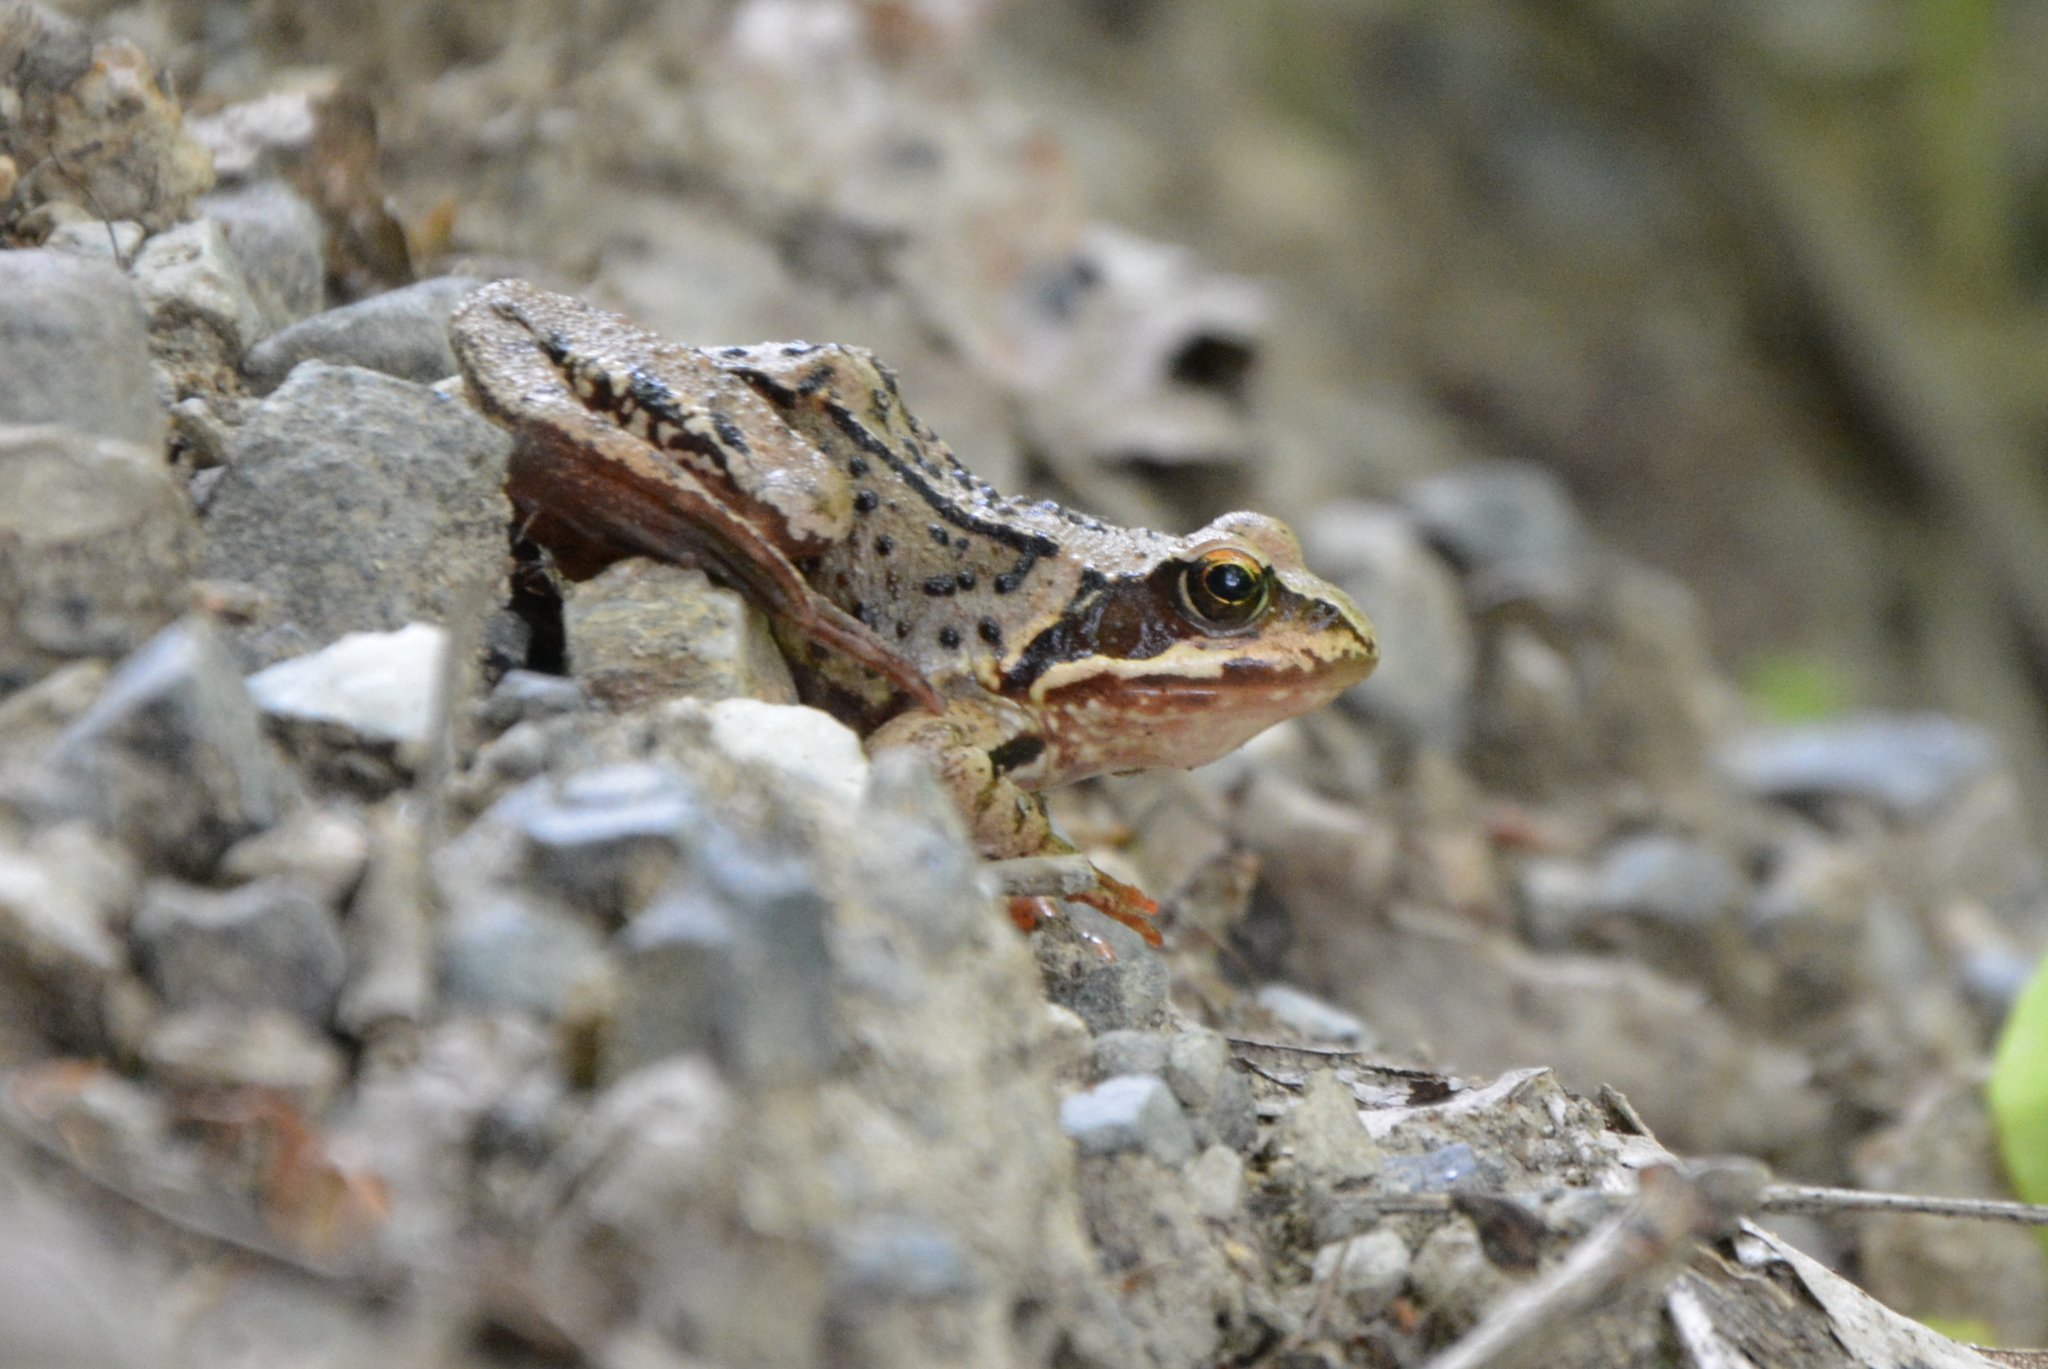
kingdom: Animalia
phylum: Chordata
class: Amphibia
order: Anura
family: Ranidae
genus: Rana
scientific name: Rana temporaria
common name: Common frog
